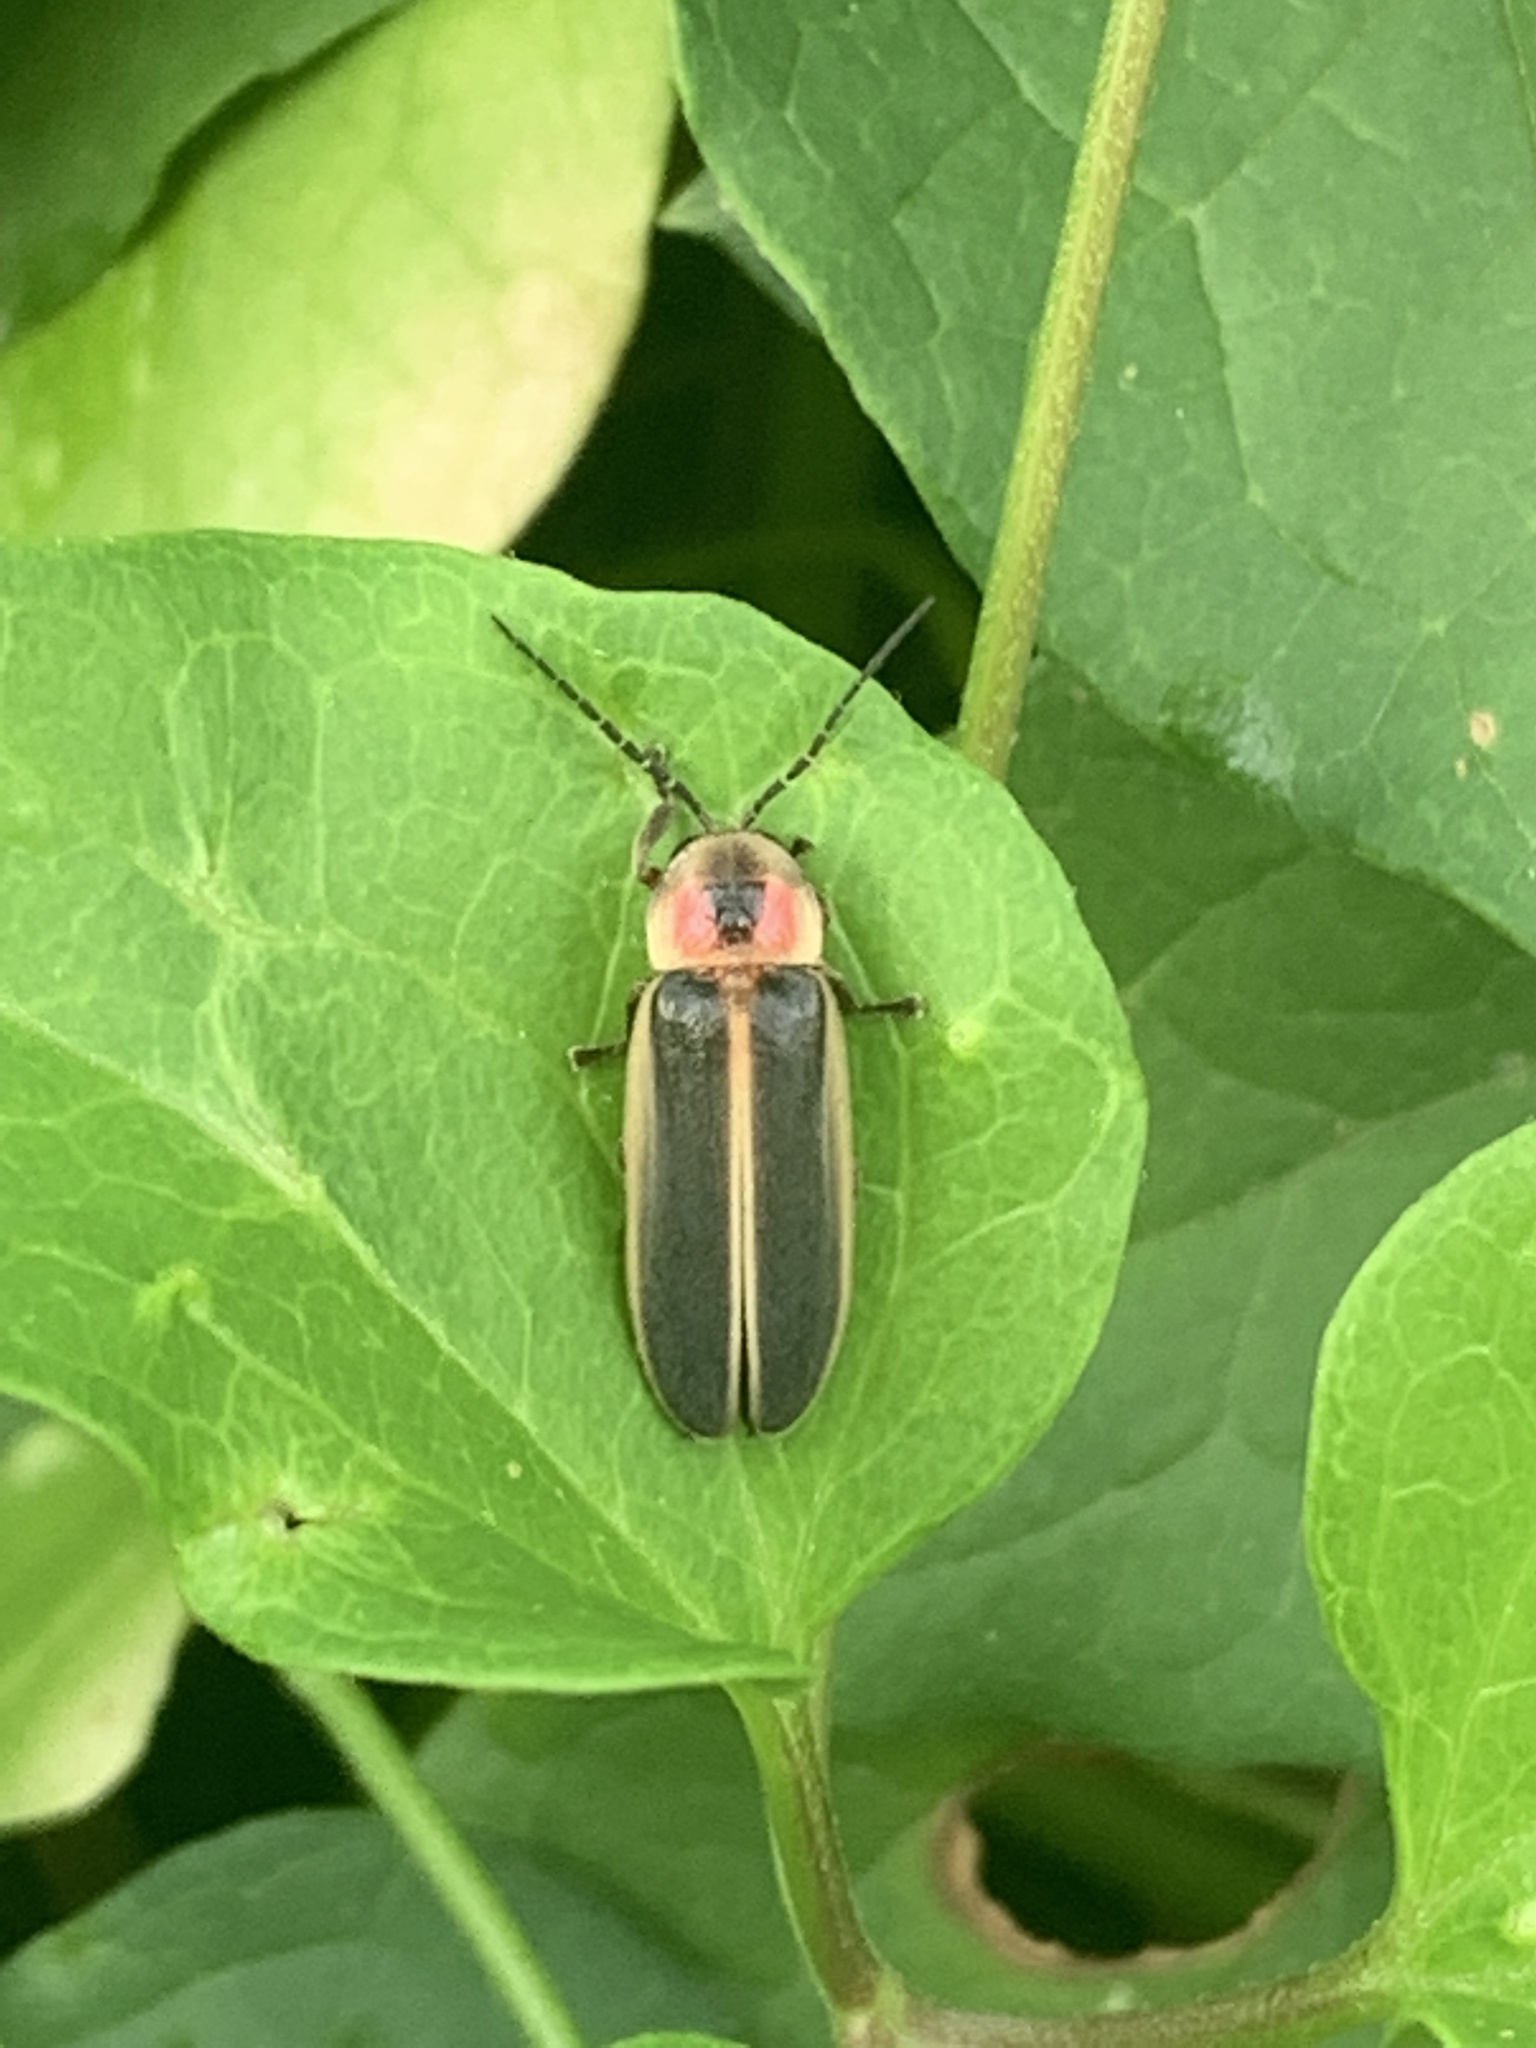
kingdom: Animalia
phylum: Arthropoda
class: Insecta
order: Coleoptera
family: Lampyridae
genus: Photinus
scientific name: Photinus pyralis
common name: Big dipper firefly
